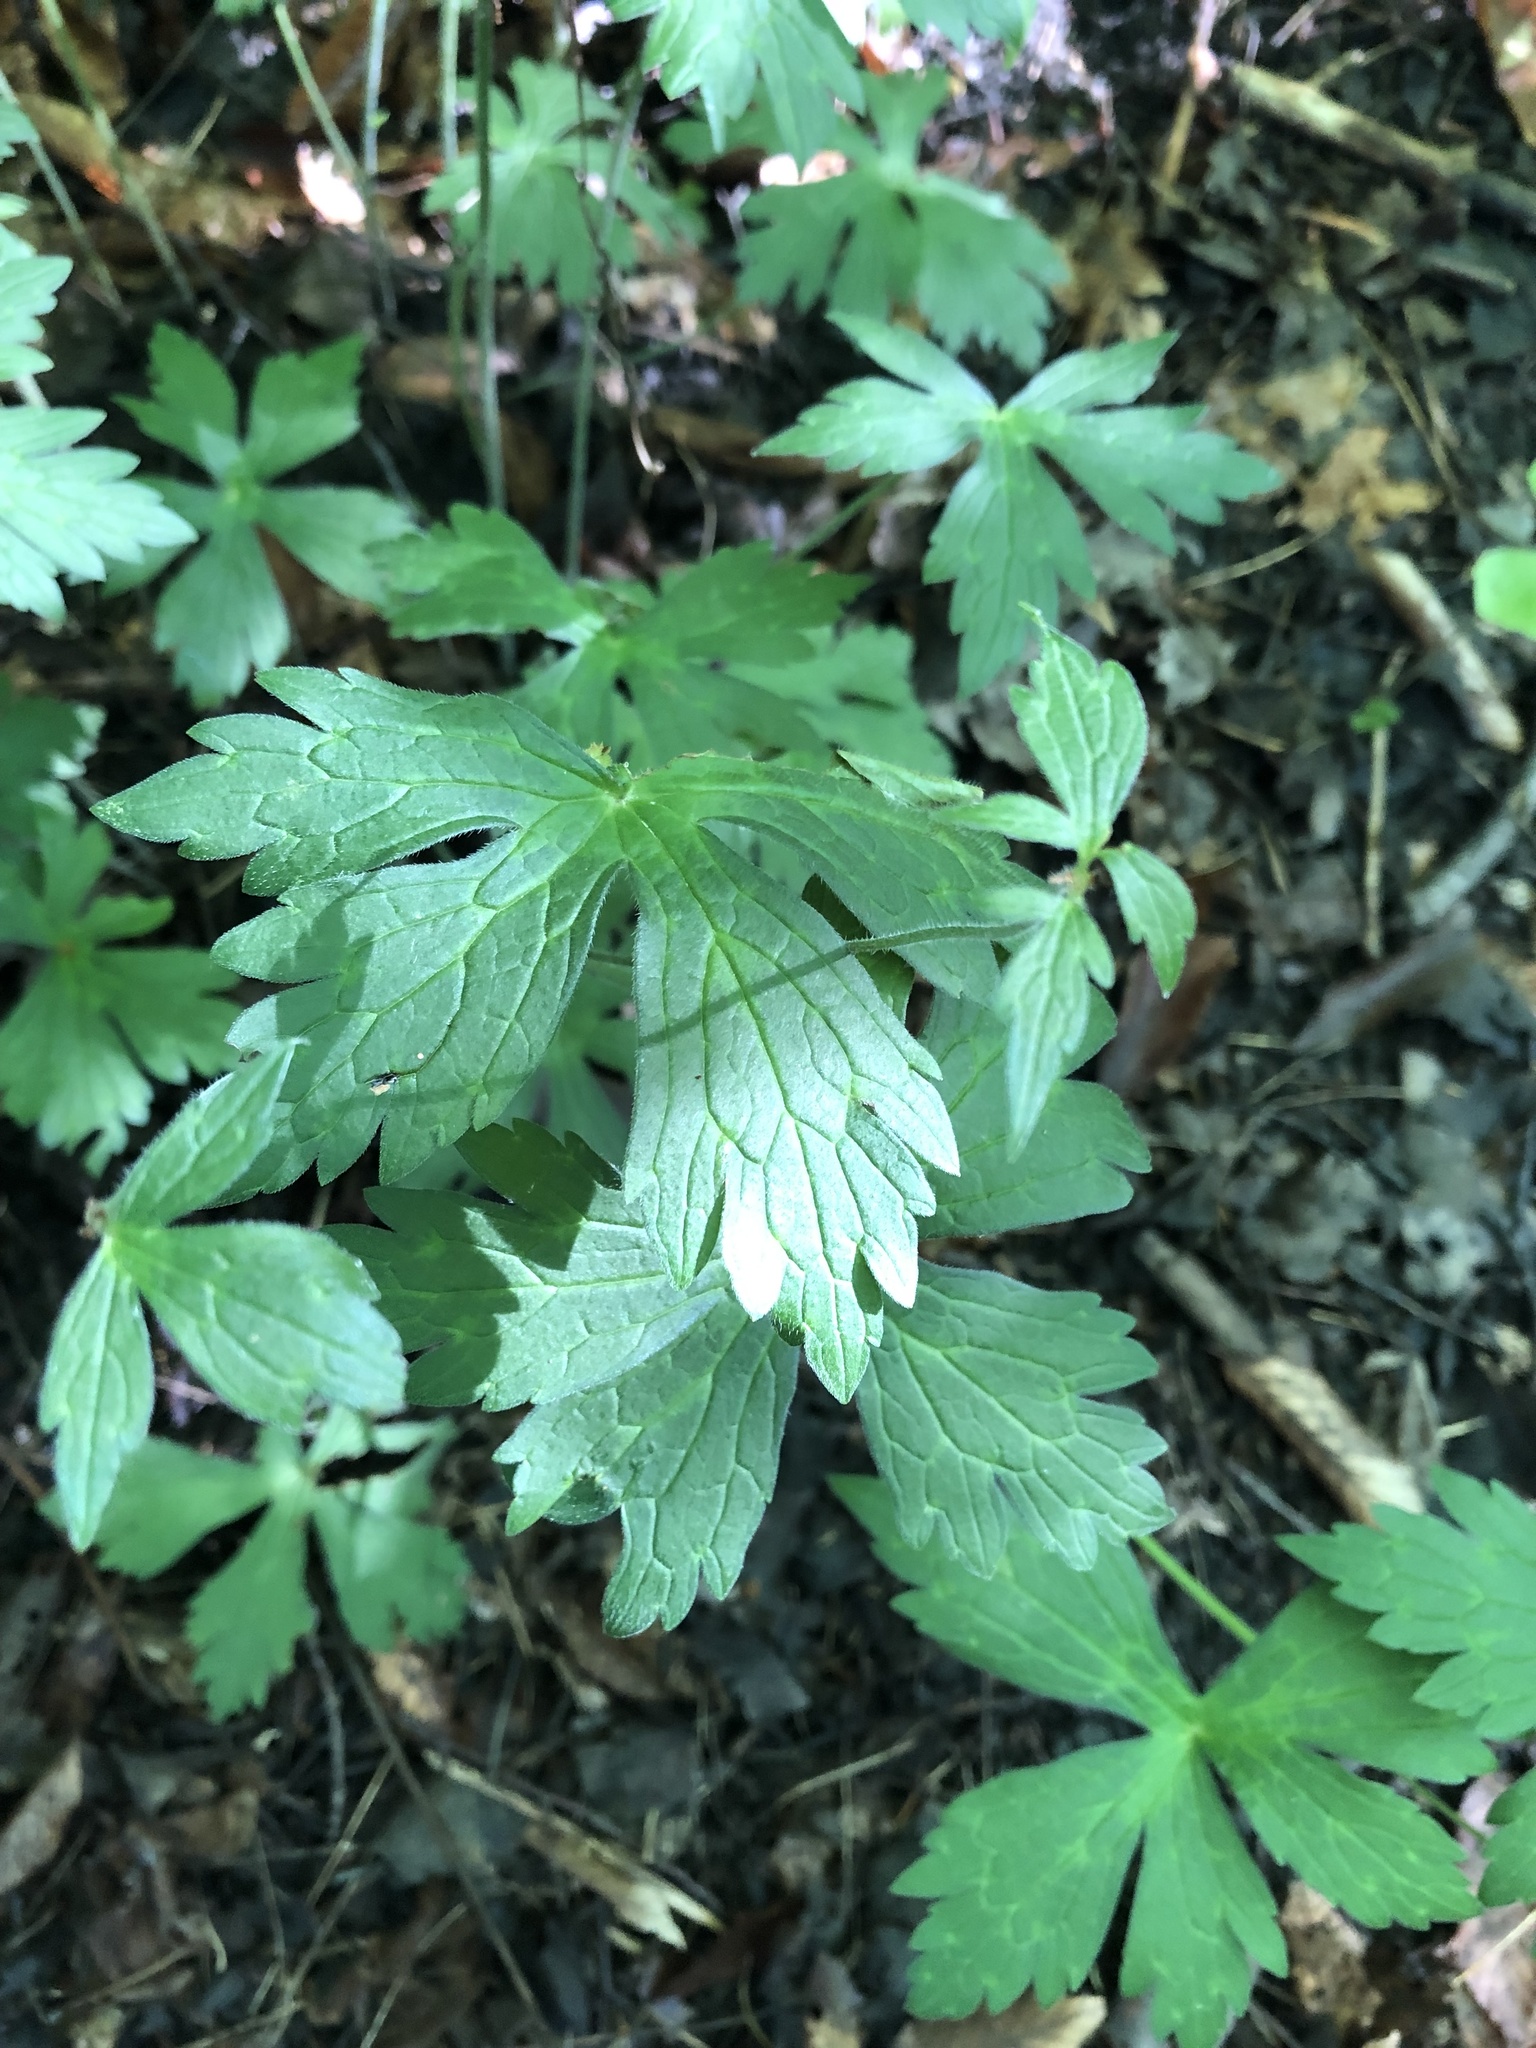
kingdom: Plantae
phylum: Tracheophyta
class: Magnoliopsida
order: Geraniales
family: Geraniaceae
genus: Geranium
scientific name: Geranium maculatum
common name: Spotted geranium
